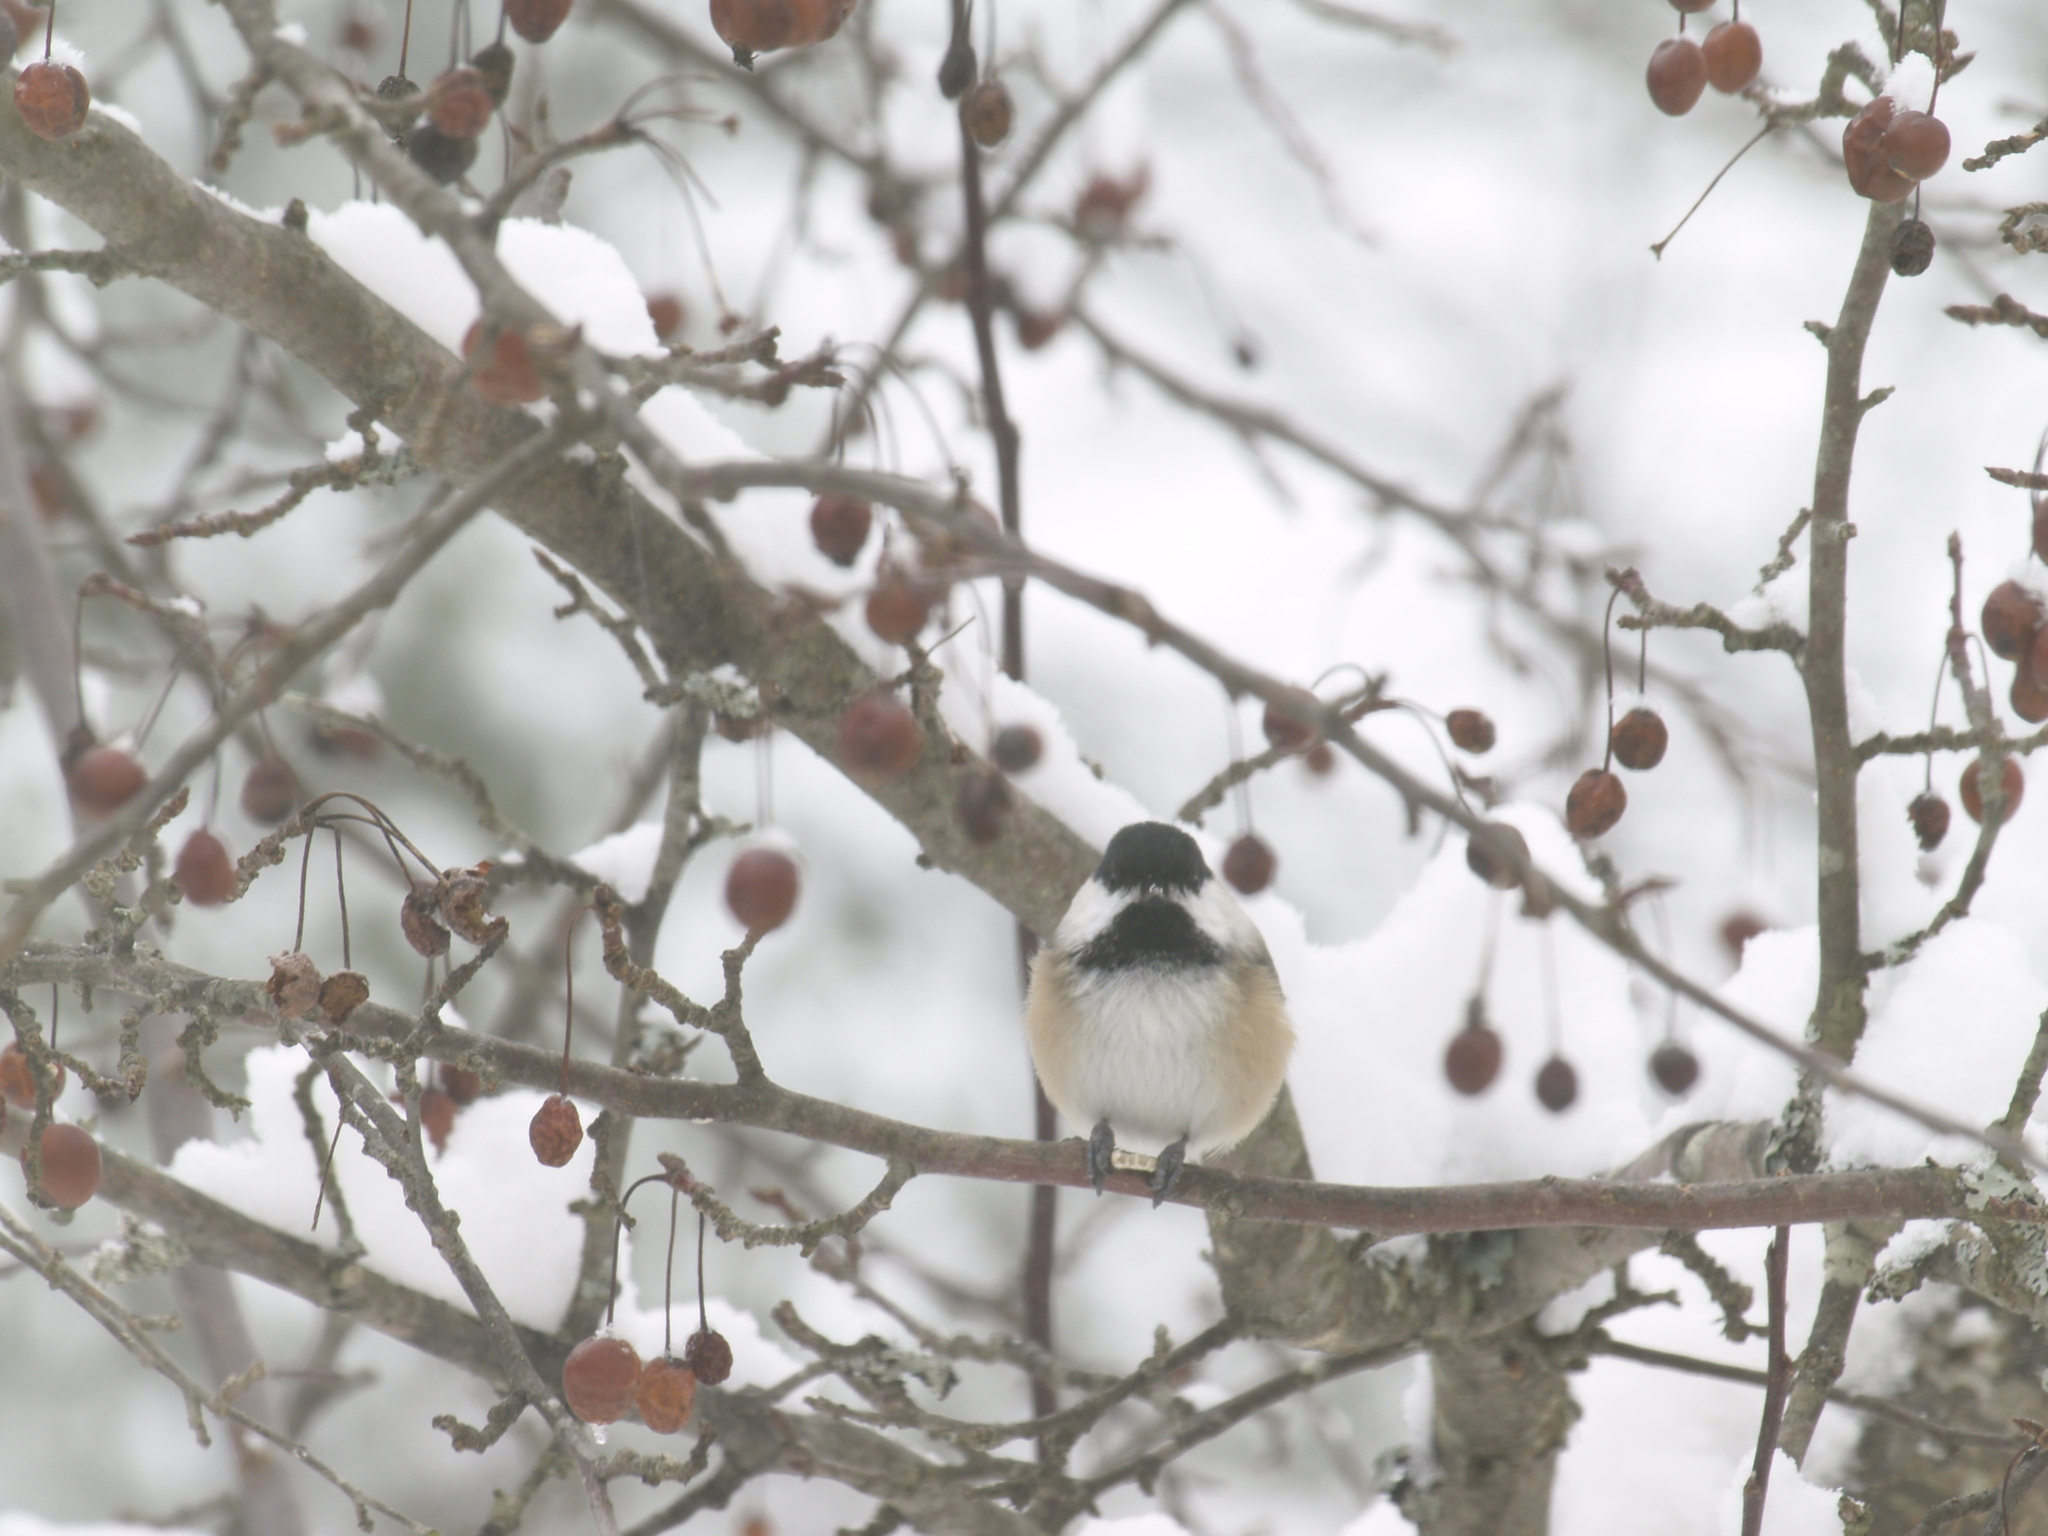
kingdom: Animalia
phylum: Chordata
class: Aves
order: Passeriformes
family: Paridae
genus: Poecile
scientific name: Poecile atricapillus
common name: Black-capped chickadee
